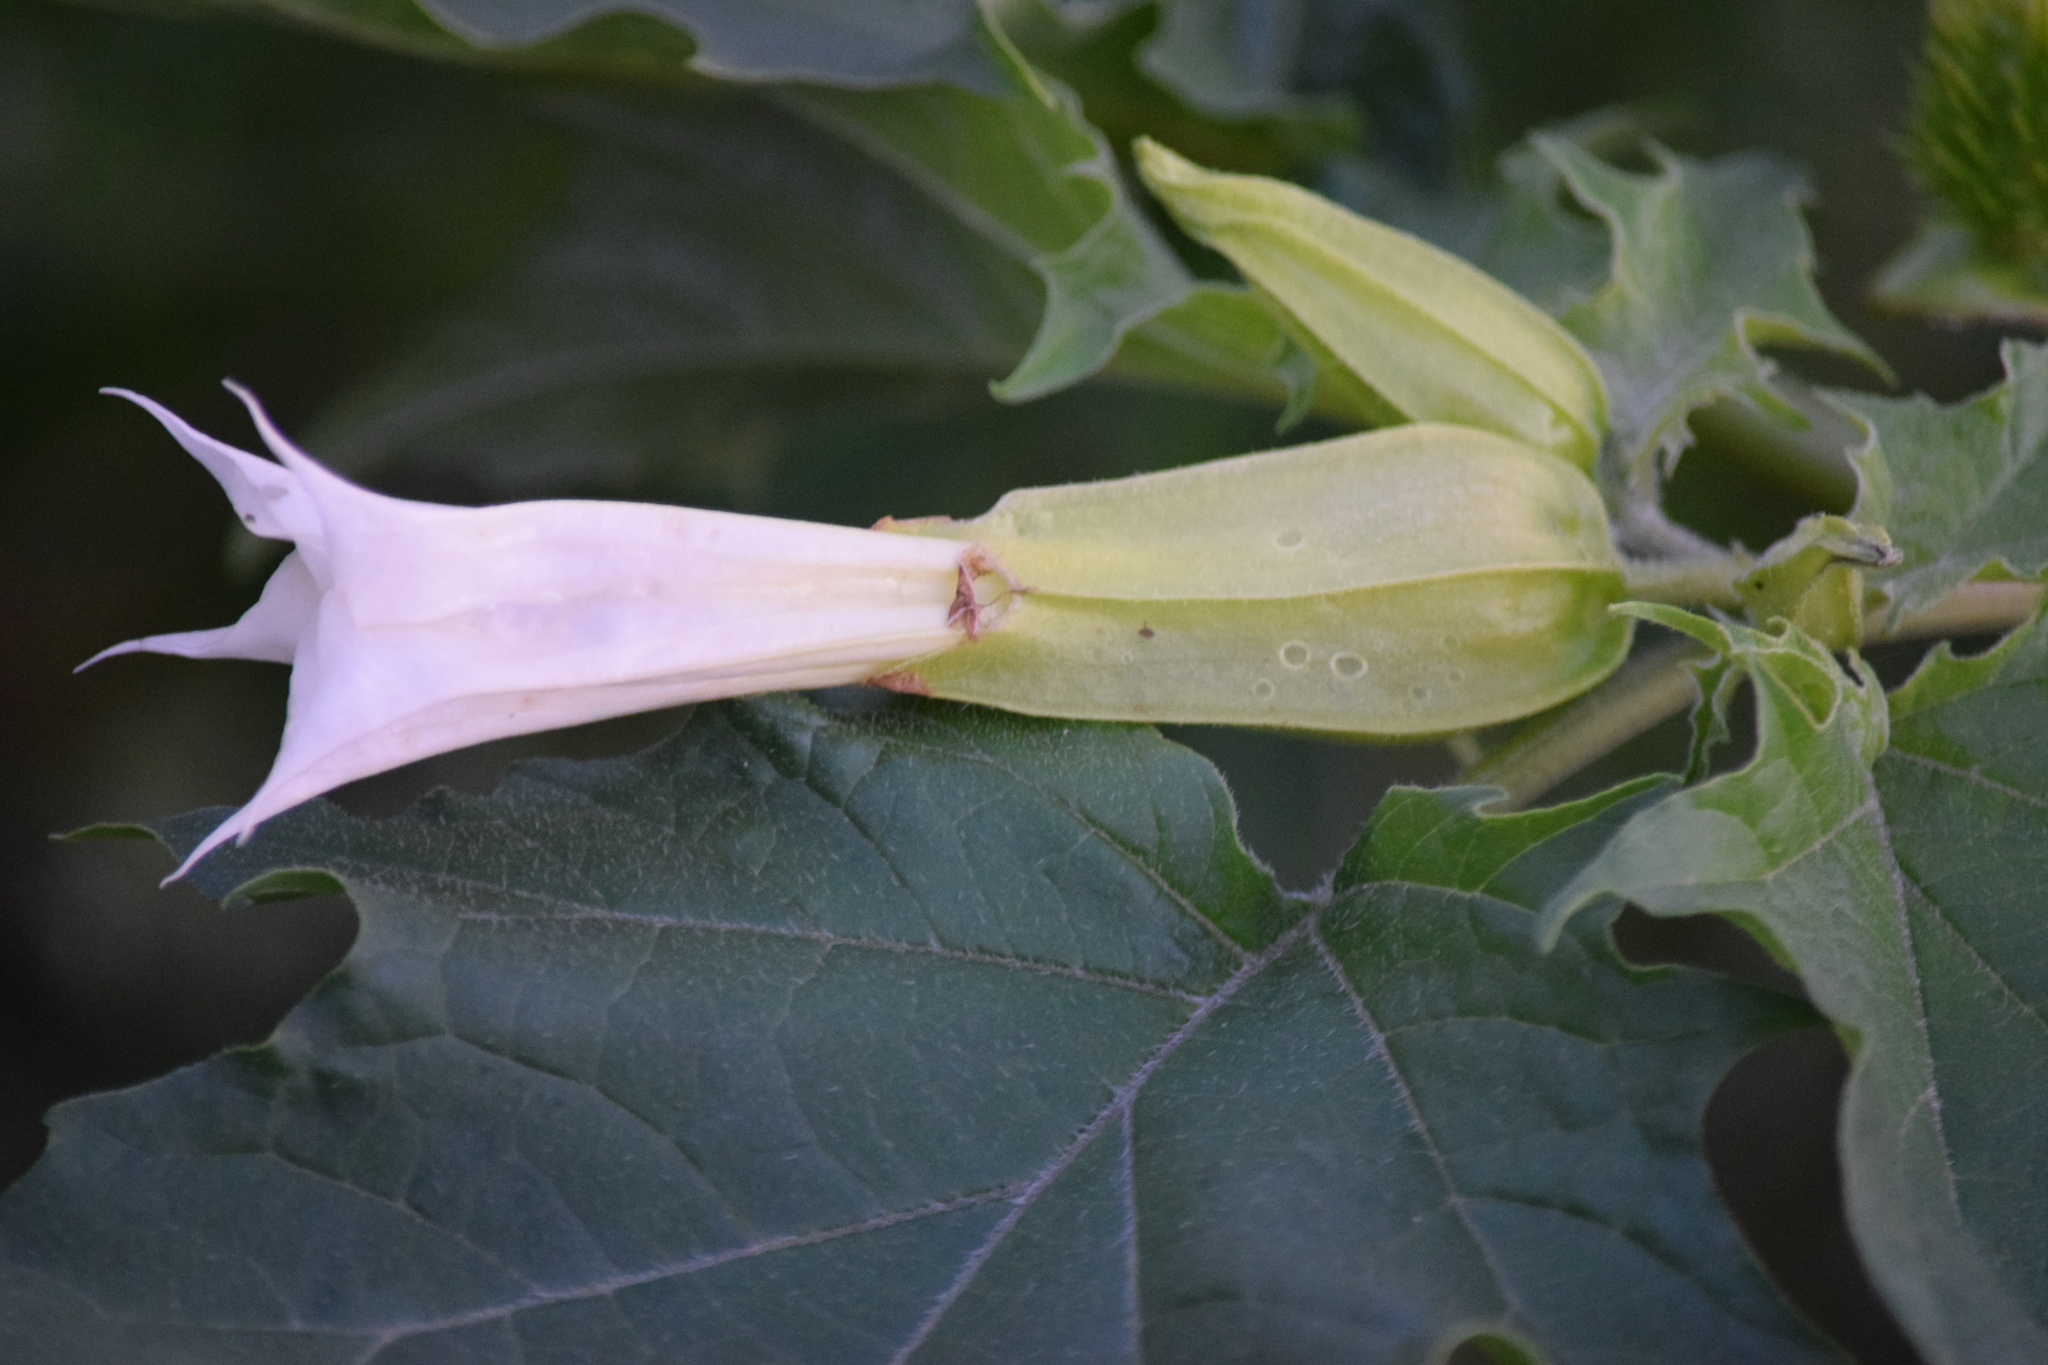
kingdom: Plantae
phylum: Tracheophyta
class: Magnoliopsida
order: Solanales
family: Solanaceae
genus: Datura
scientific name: Datura stramonium
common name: Thorn-apple
